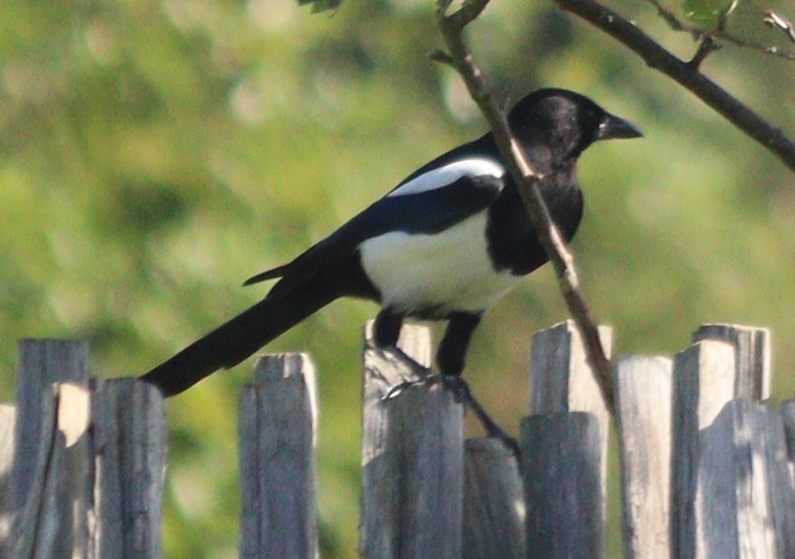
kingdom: Animalia
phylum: Chordata
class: Aves
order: Passeriformes
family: Corvidae
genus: Pica
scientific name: Pica pica
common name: Eurasian magpie
